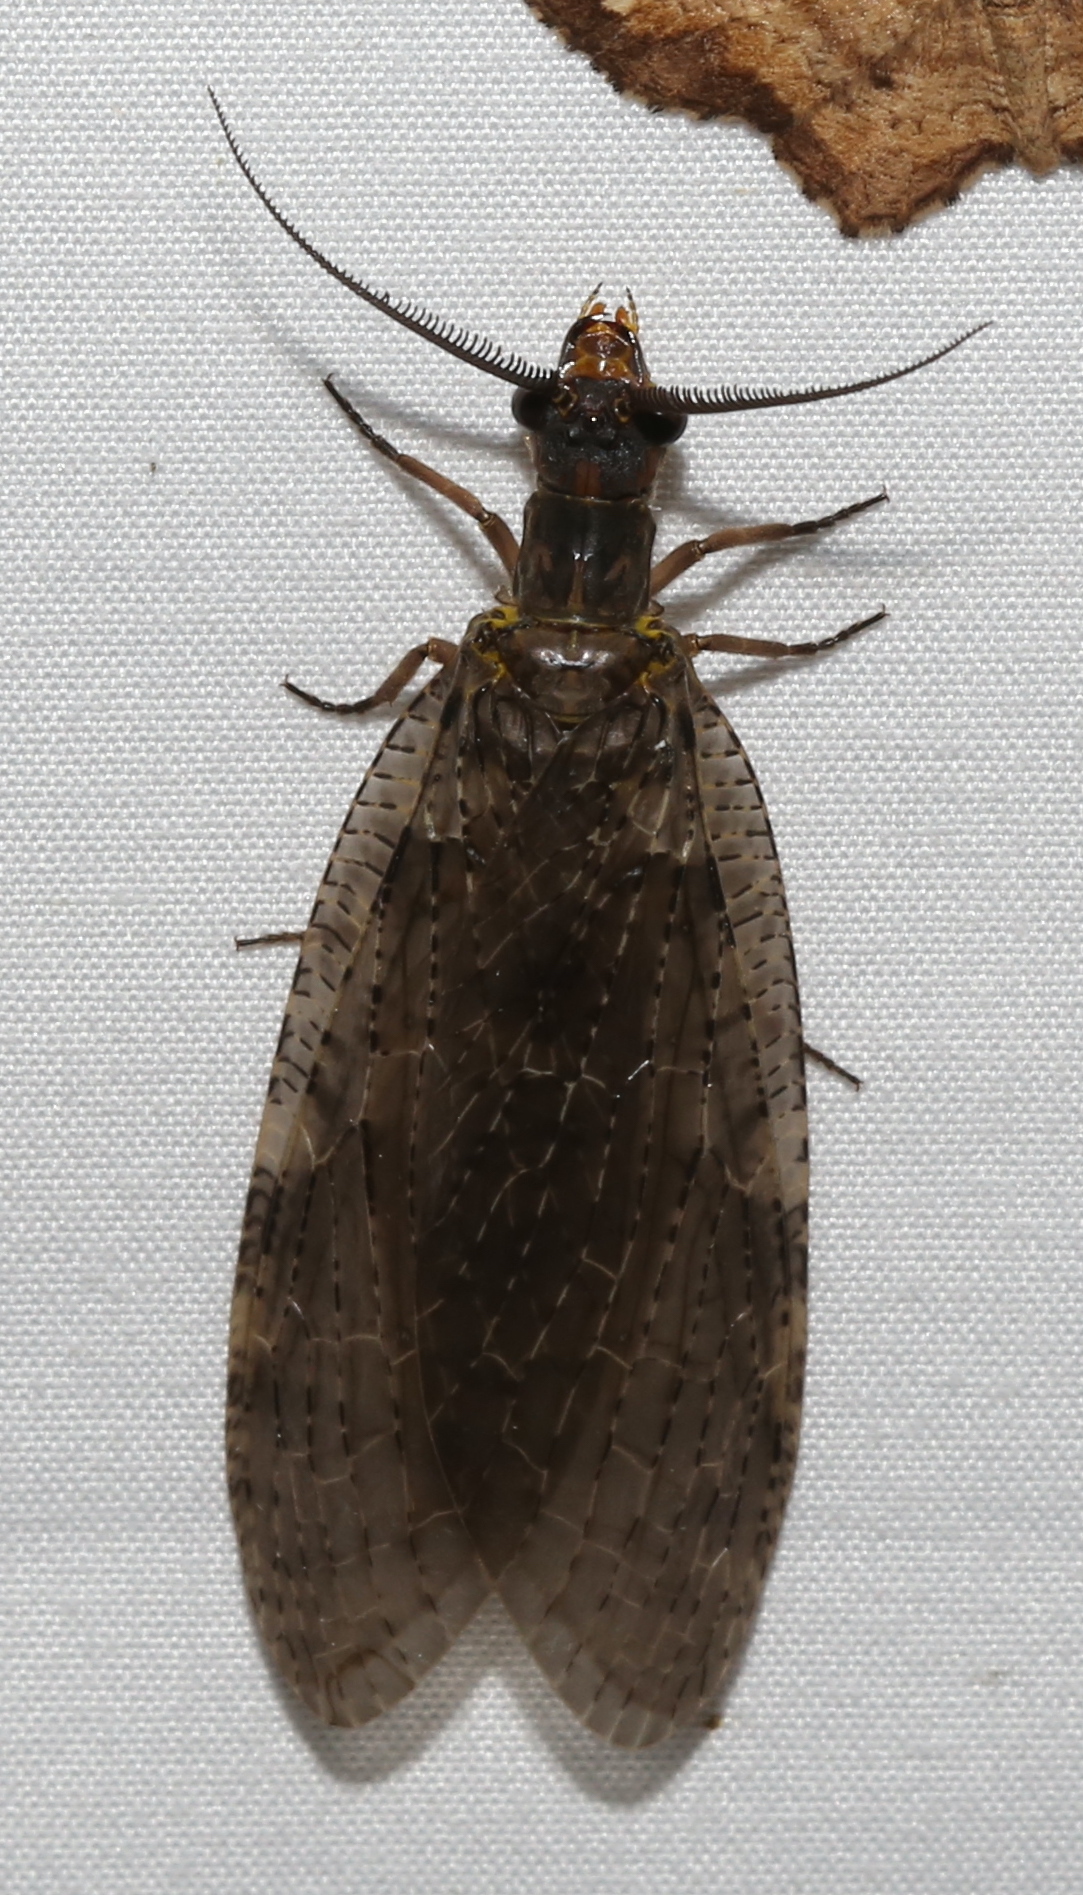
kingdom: Animalia
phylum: Arthropoda
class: Insecta
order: Megaloptera
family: Corydalidae
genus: Chauliodes
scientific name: Chauliodes pectinicornis
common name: Summer fishfly
